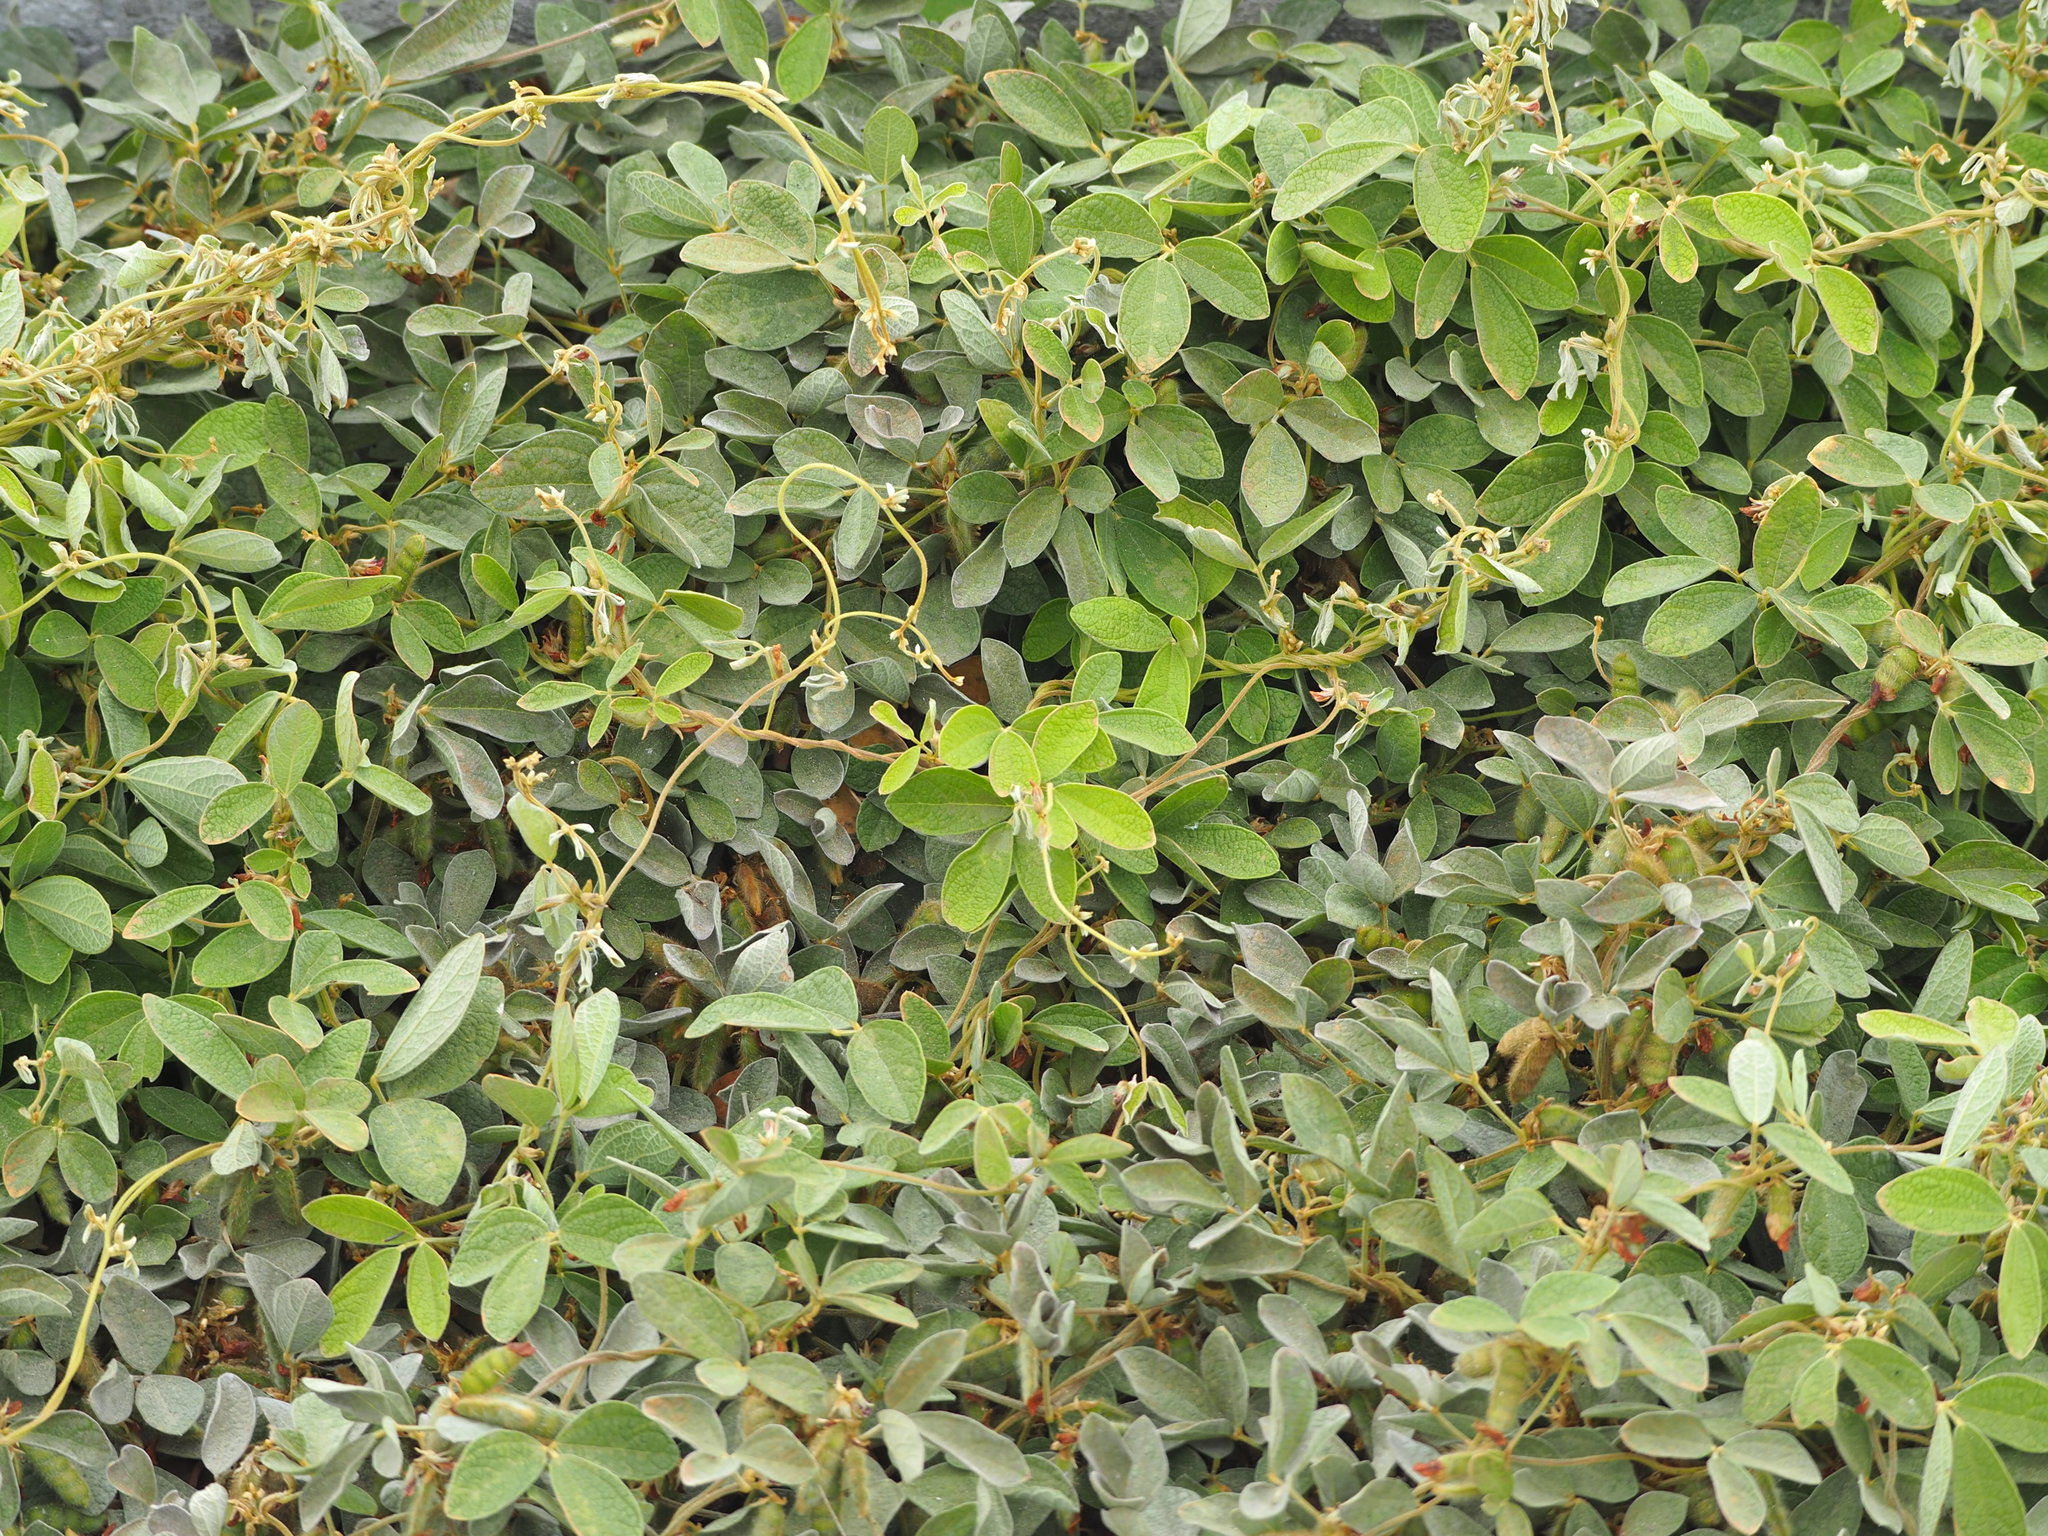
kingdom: Plantae
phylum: Tracheophyta
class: Magnoliopsida
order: Fabales
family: Fabaceae
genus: Cajanus
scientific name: Cajanus scarabaeoides
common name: Showy pigeonpea
